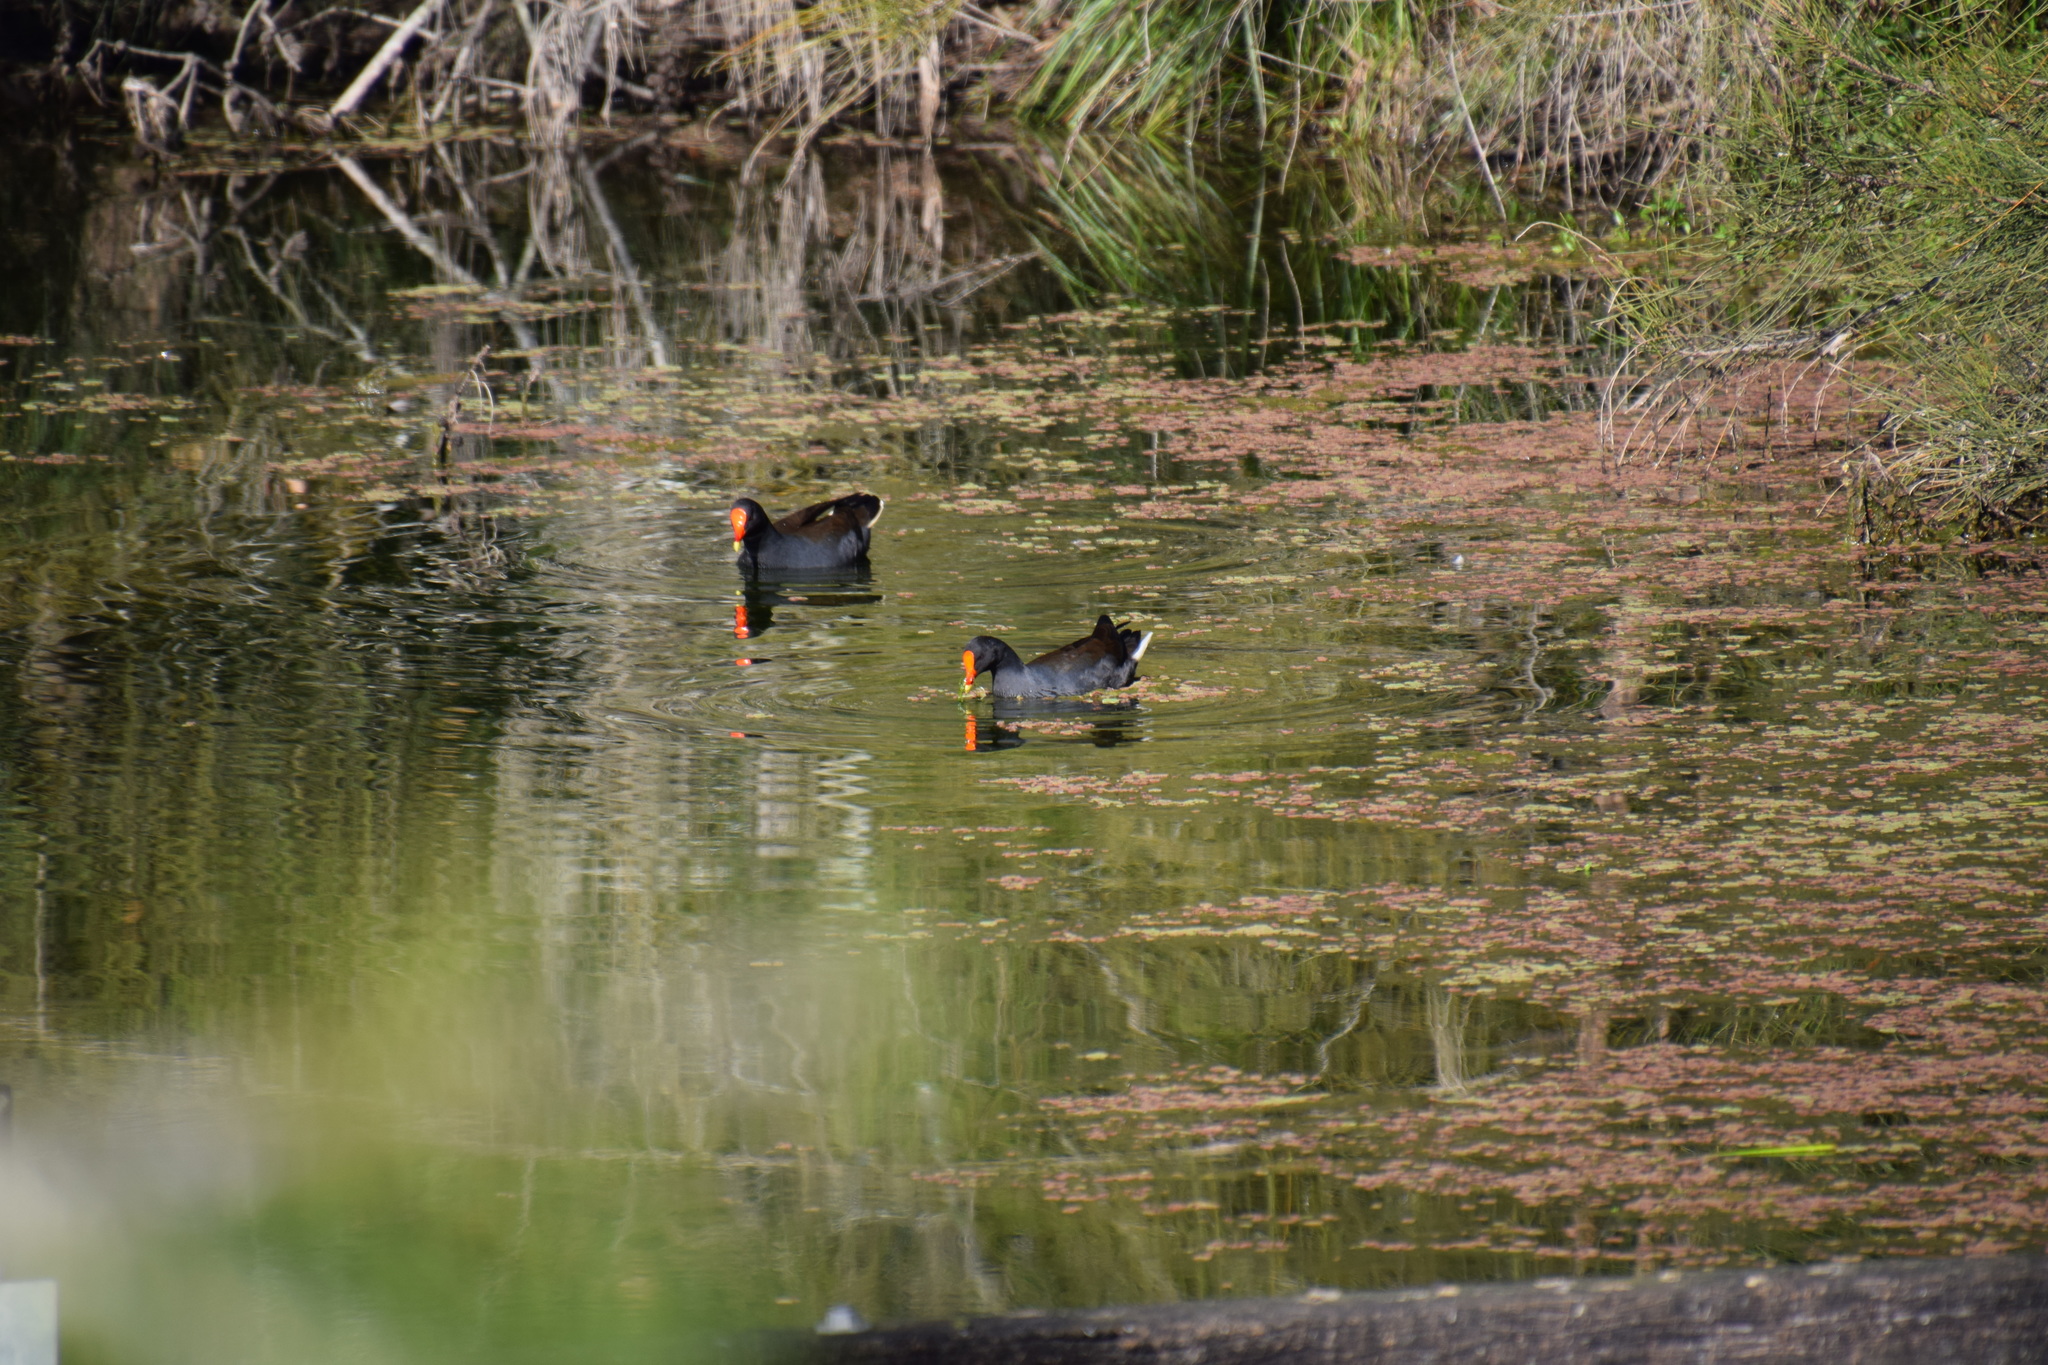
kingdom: Animalia
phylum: Chordata
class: Aves
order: Gruiformes
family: Rallidae
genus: Gallinula
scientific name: Gallinula tenebrosa
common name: Dusky moorhen
